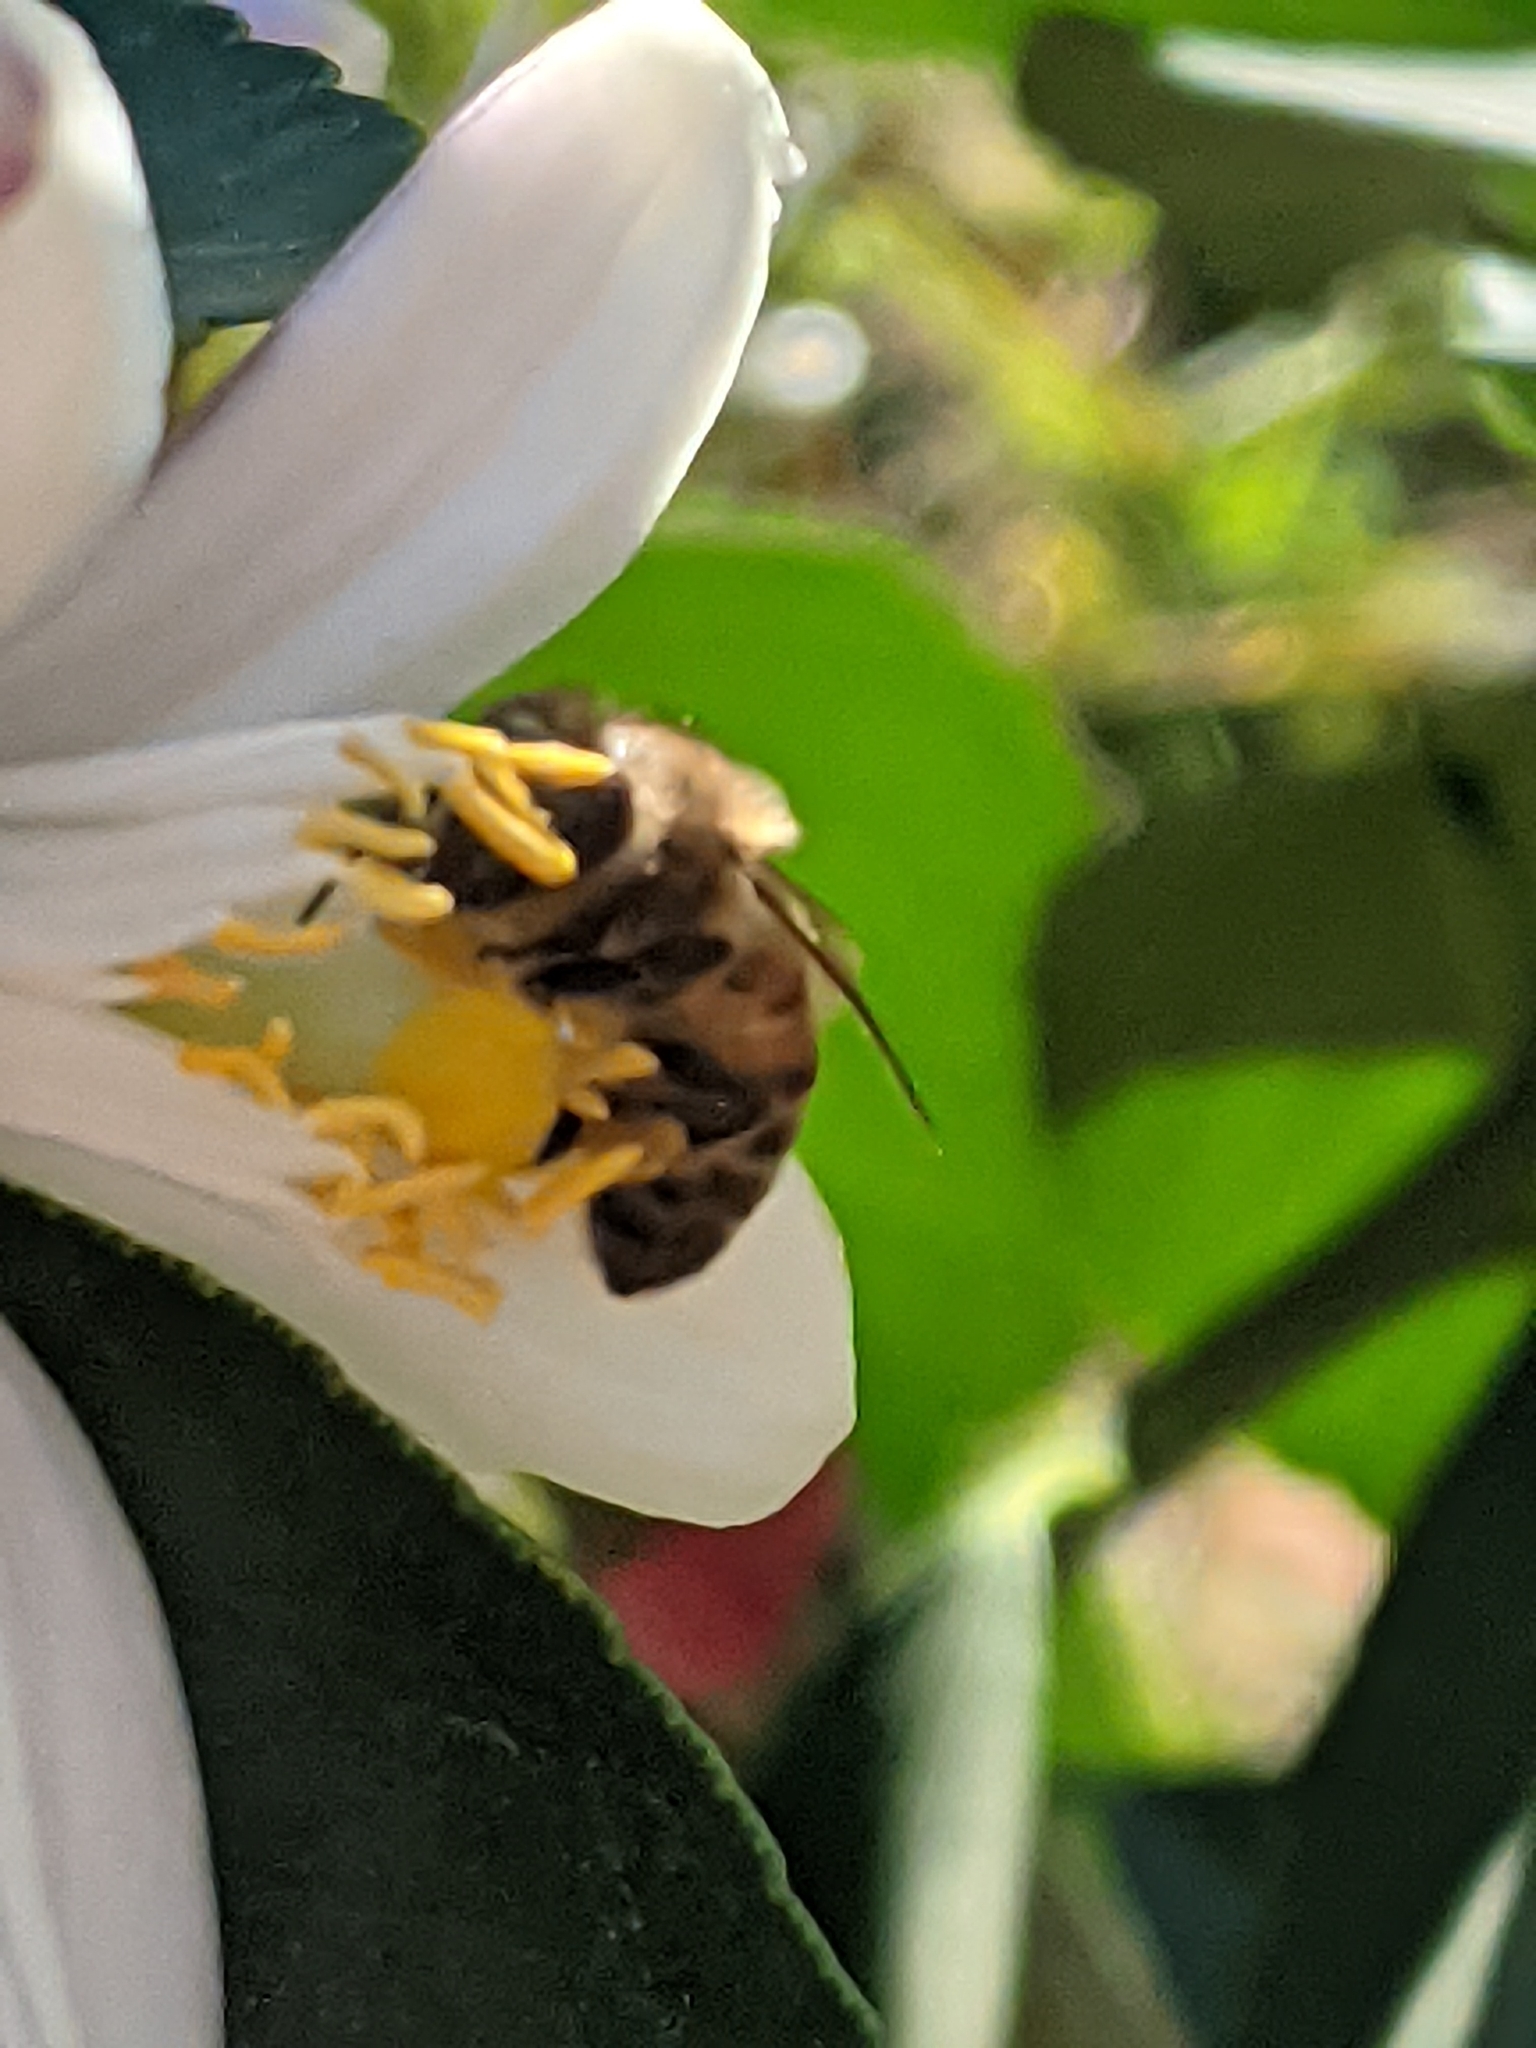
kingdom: Animalia
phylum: Arthropoda
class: Insecta
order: Hymenoptera
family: Apidae
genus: Apis
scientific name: Apis mellifera
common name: Honey bee
